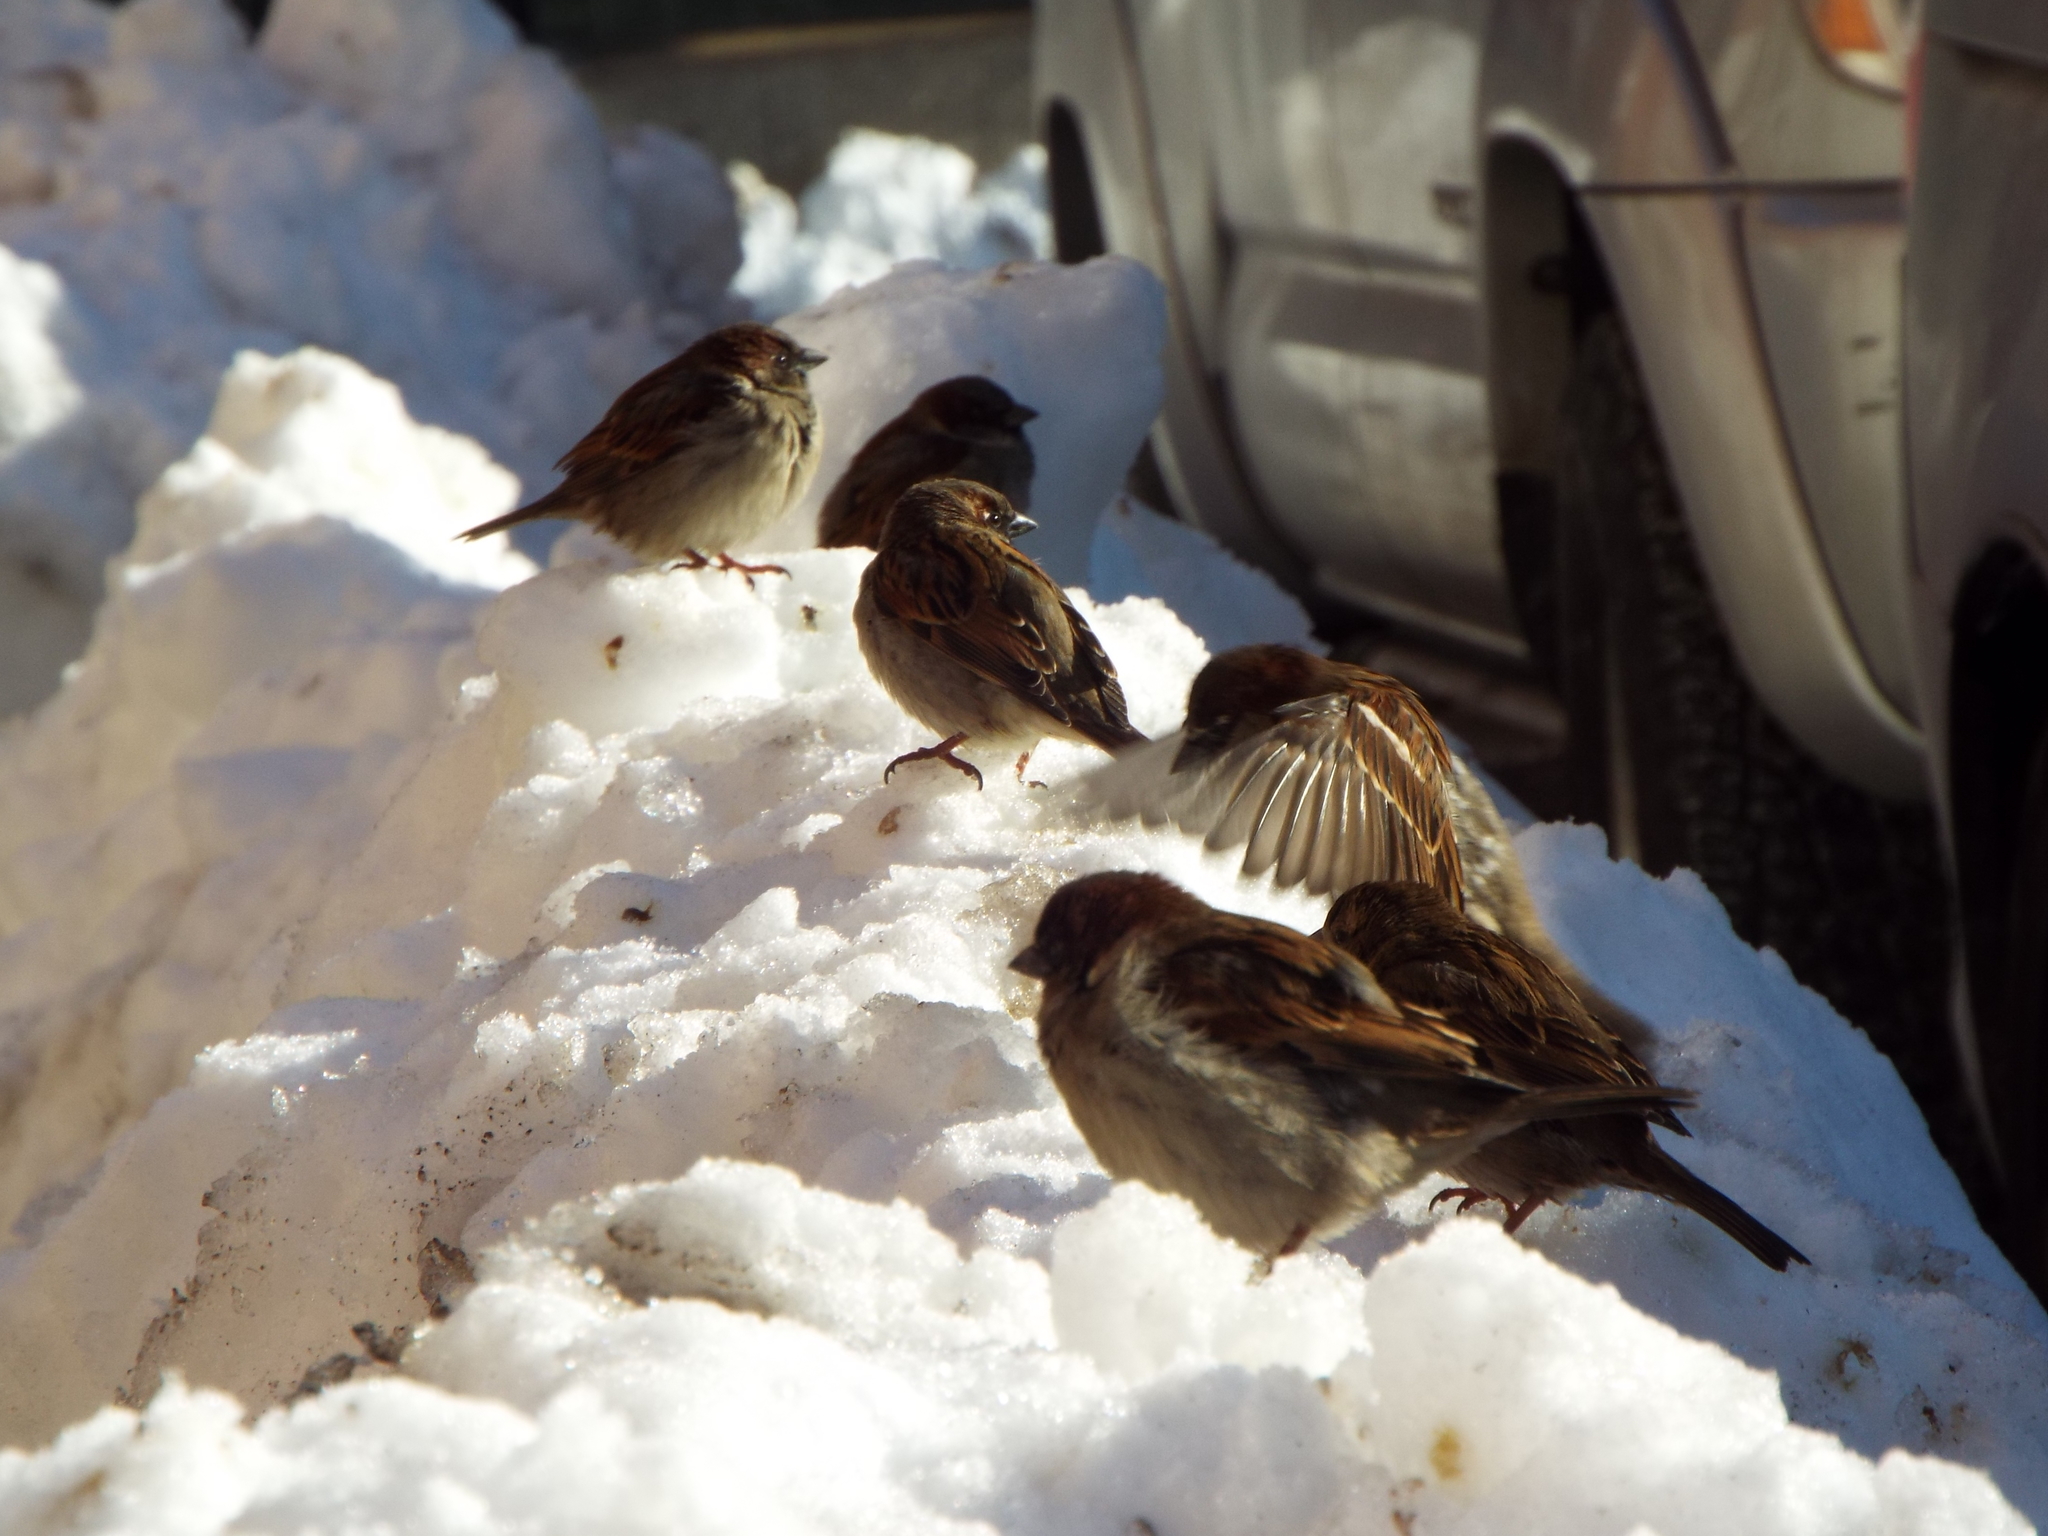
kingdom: Animalia
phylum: Chordata
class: Aves
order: Passeriformes
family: Passeridae
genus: Passer
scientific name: Passer domesticus
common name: House sparrow
